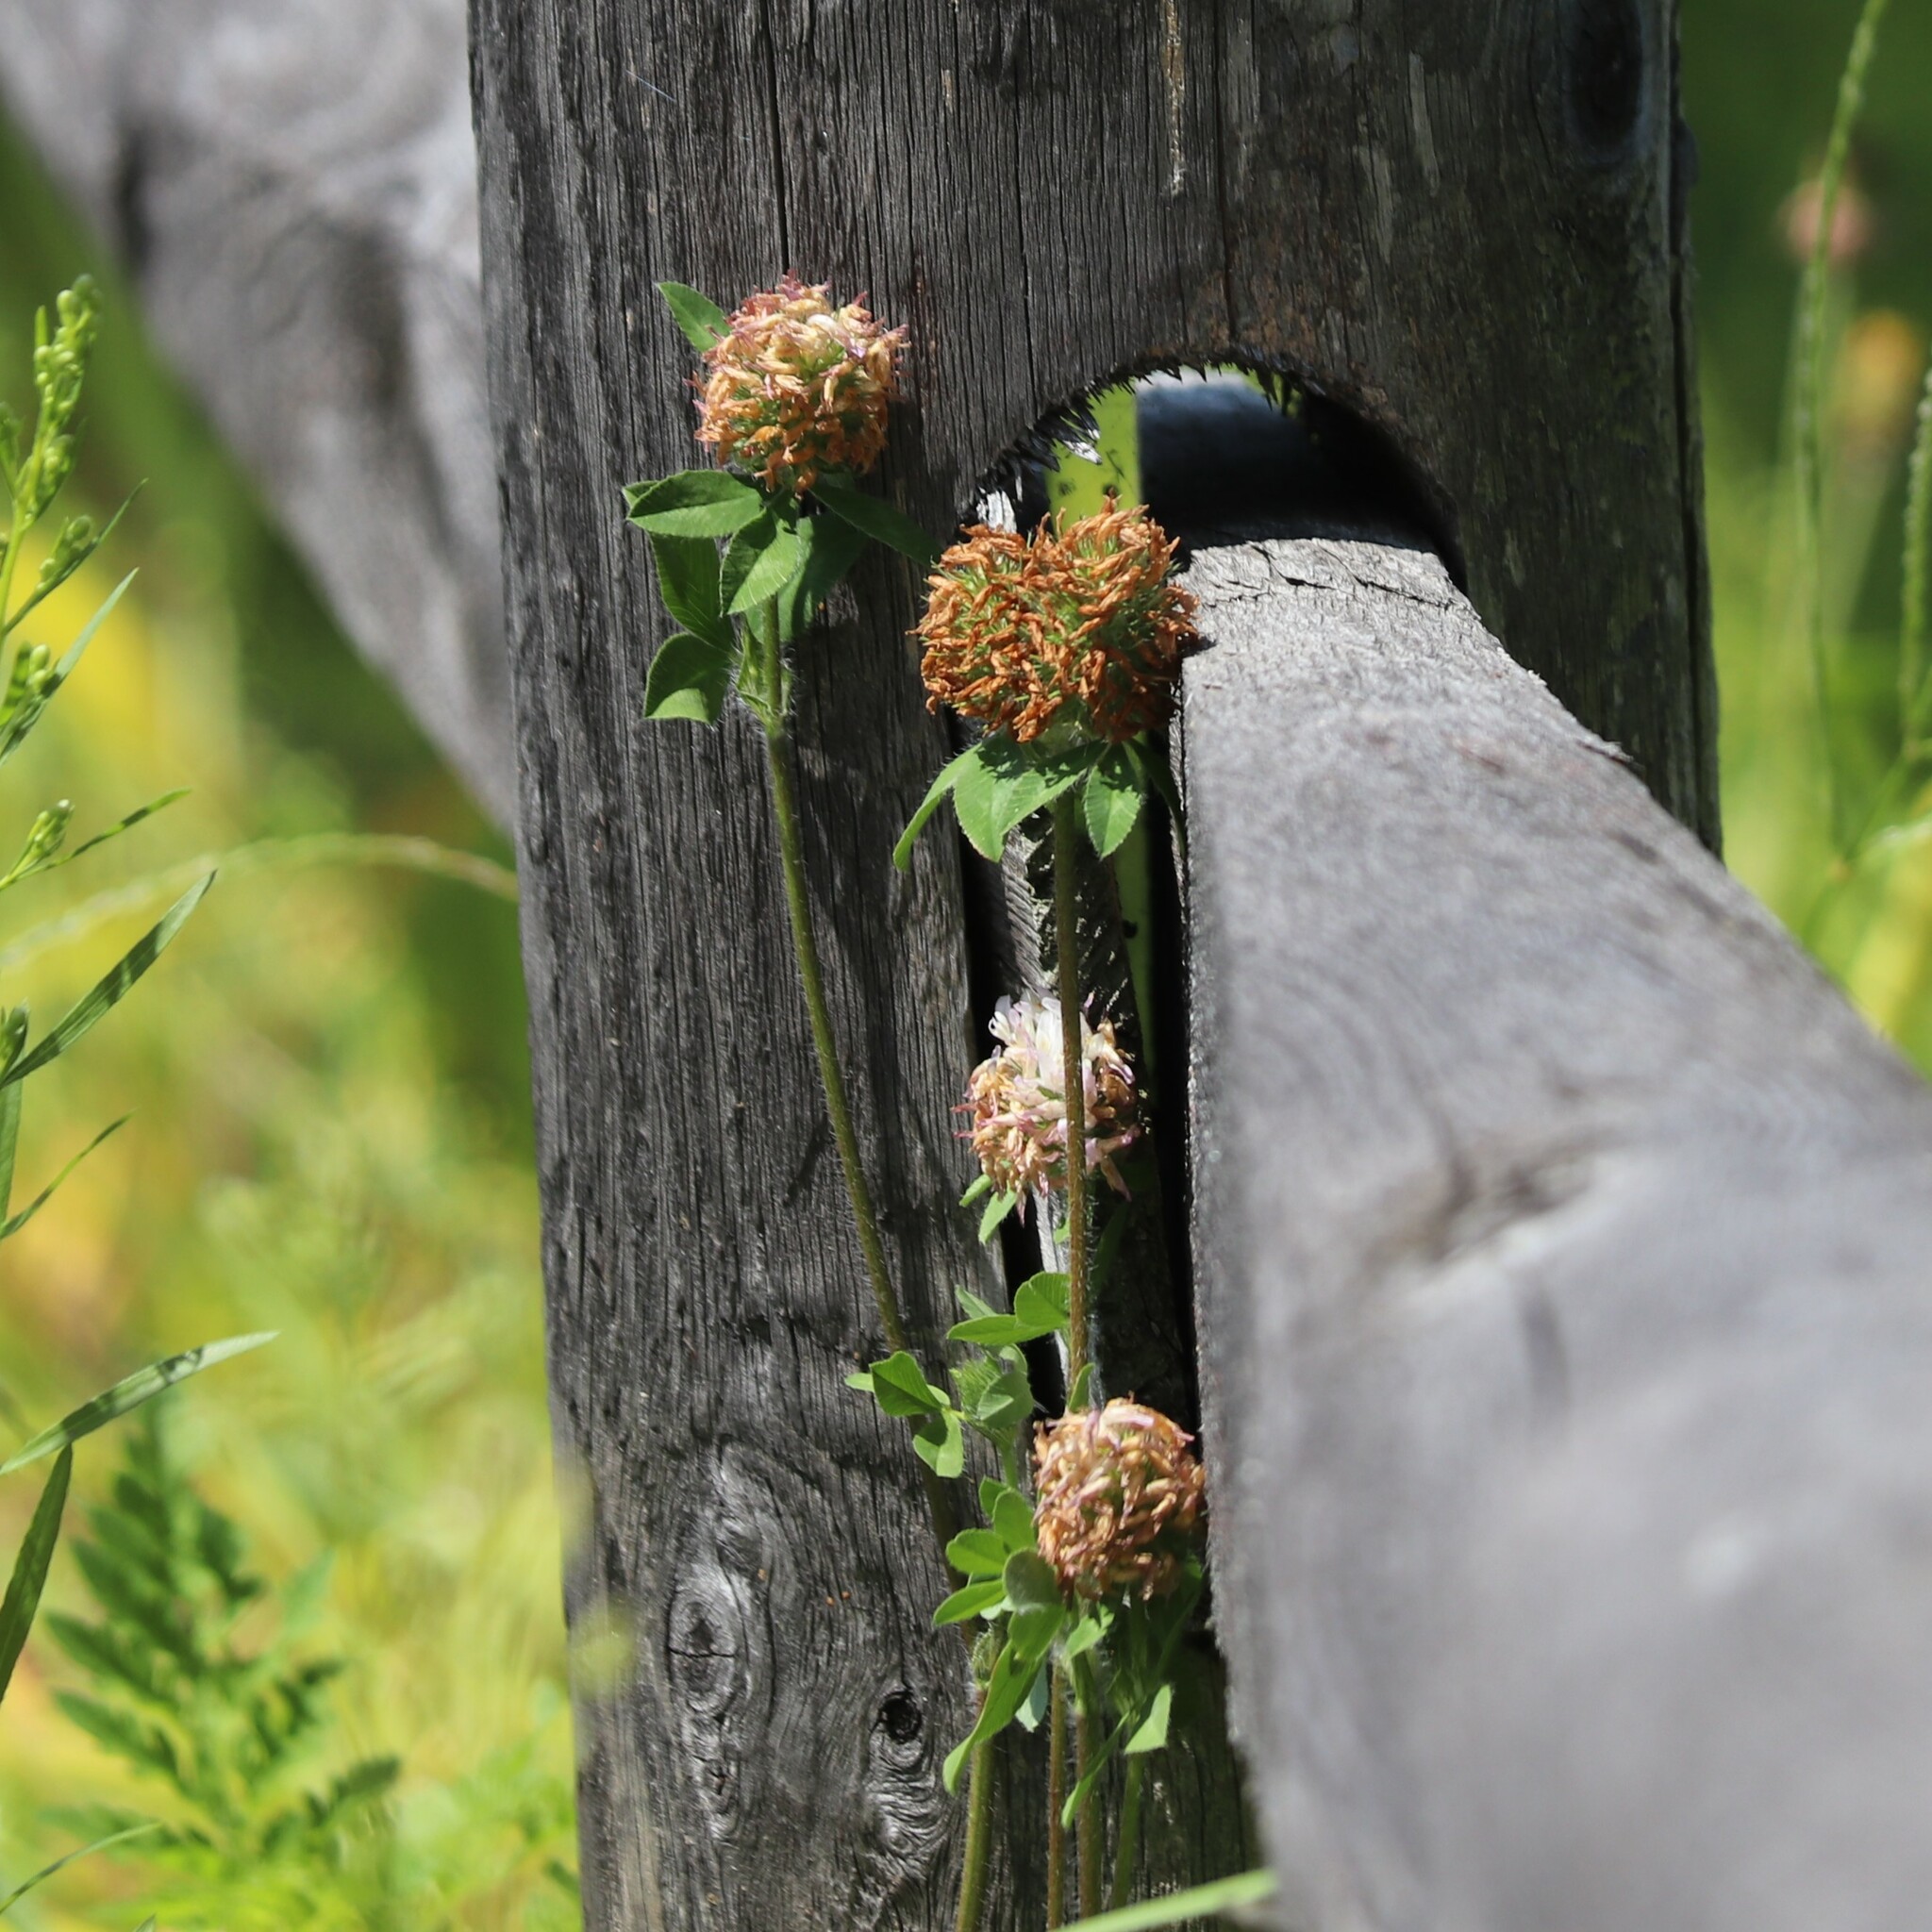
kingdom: Plantae
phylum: Tracheophyta
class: Magnoliopsida
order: Fabales
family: Fabaceae
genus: Trifolium
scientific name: Trifolium pratense
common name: Red clover
